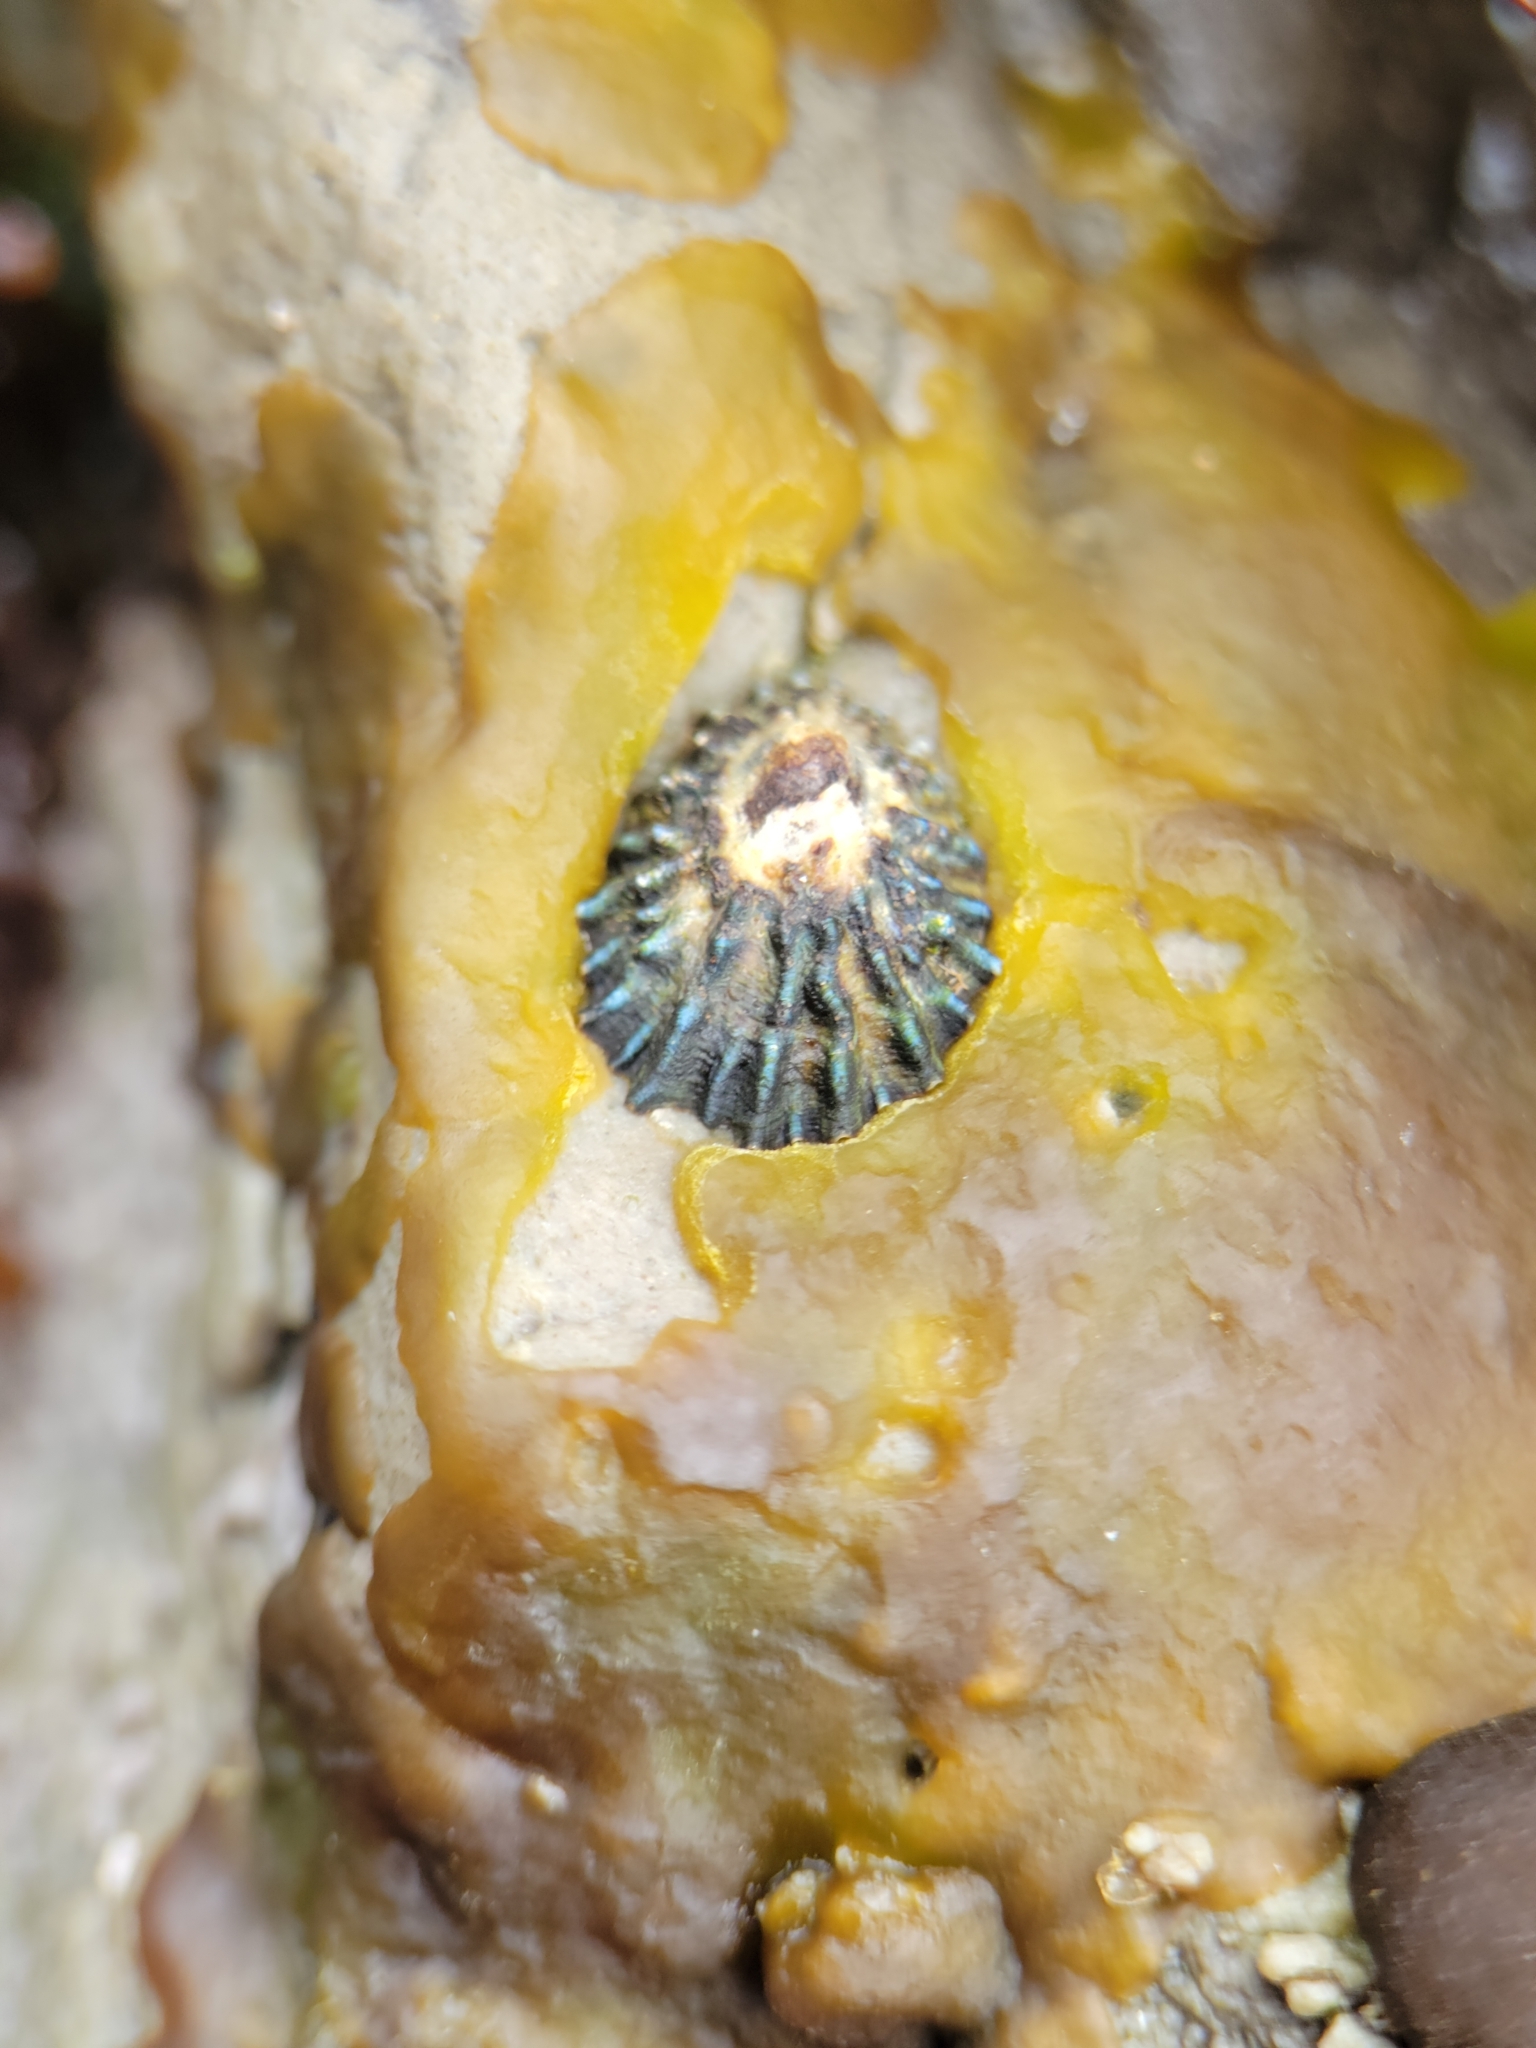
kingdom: Animalia
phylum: Mollusca
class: Gastropoda
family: Lottiidae
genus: Lottia
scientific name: Lottia scabra
